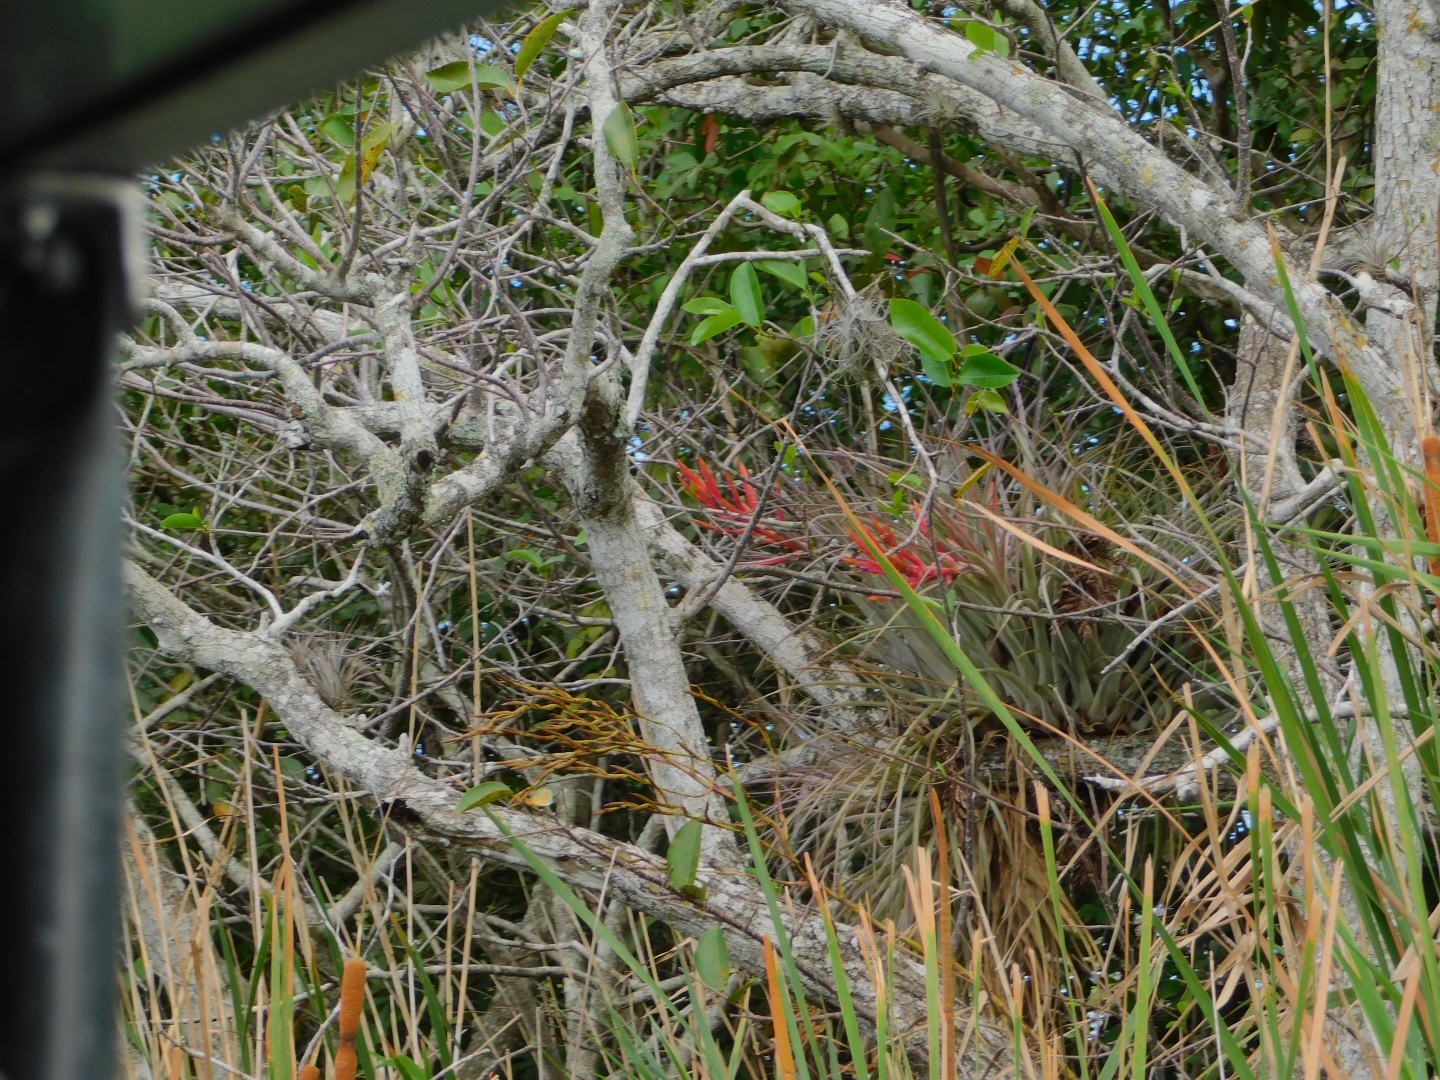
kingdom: Plantae
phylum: Tracheophyta
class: Liliopsida
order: Poales
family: Bromeliaceae
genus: Tillandsia
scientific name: Tillandsia fasciculata
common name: Giant airplant
